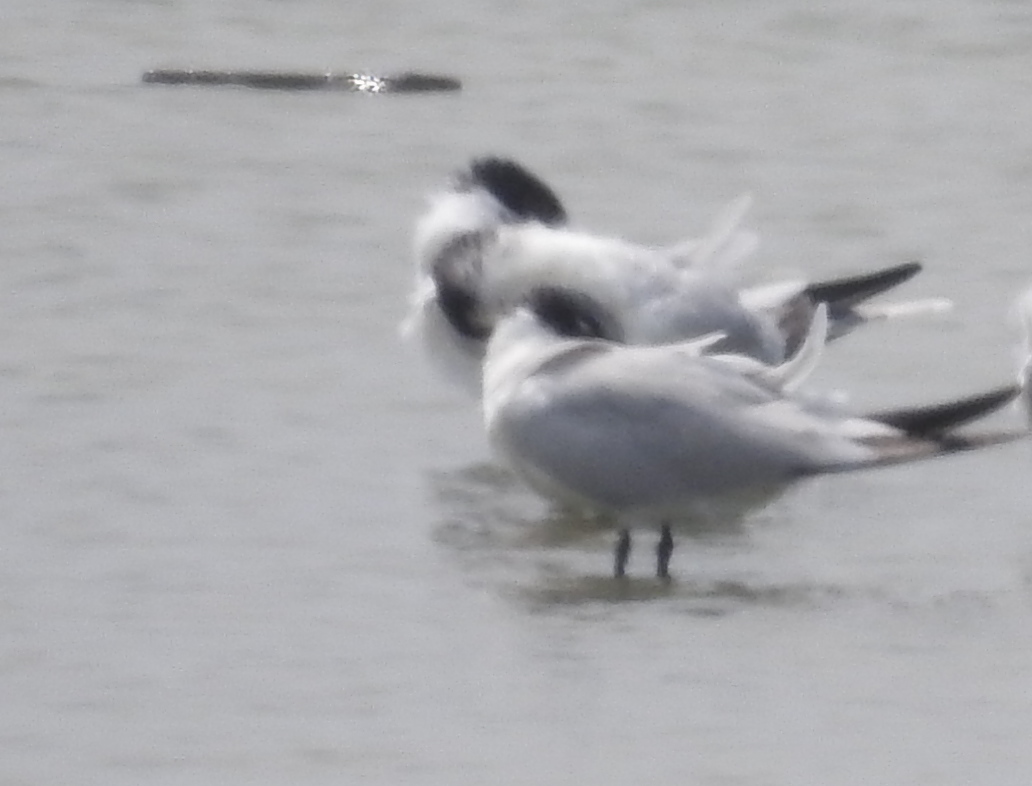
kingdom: Animalia
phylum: Chordata
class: Aves
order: Charadriiformes
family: Laridae
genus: Hydroprogne
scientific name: Hydroprogne caspia
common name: Caspian tern
